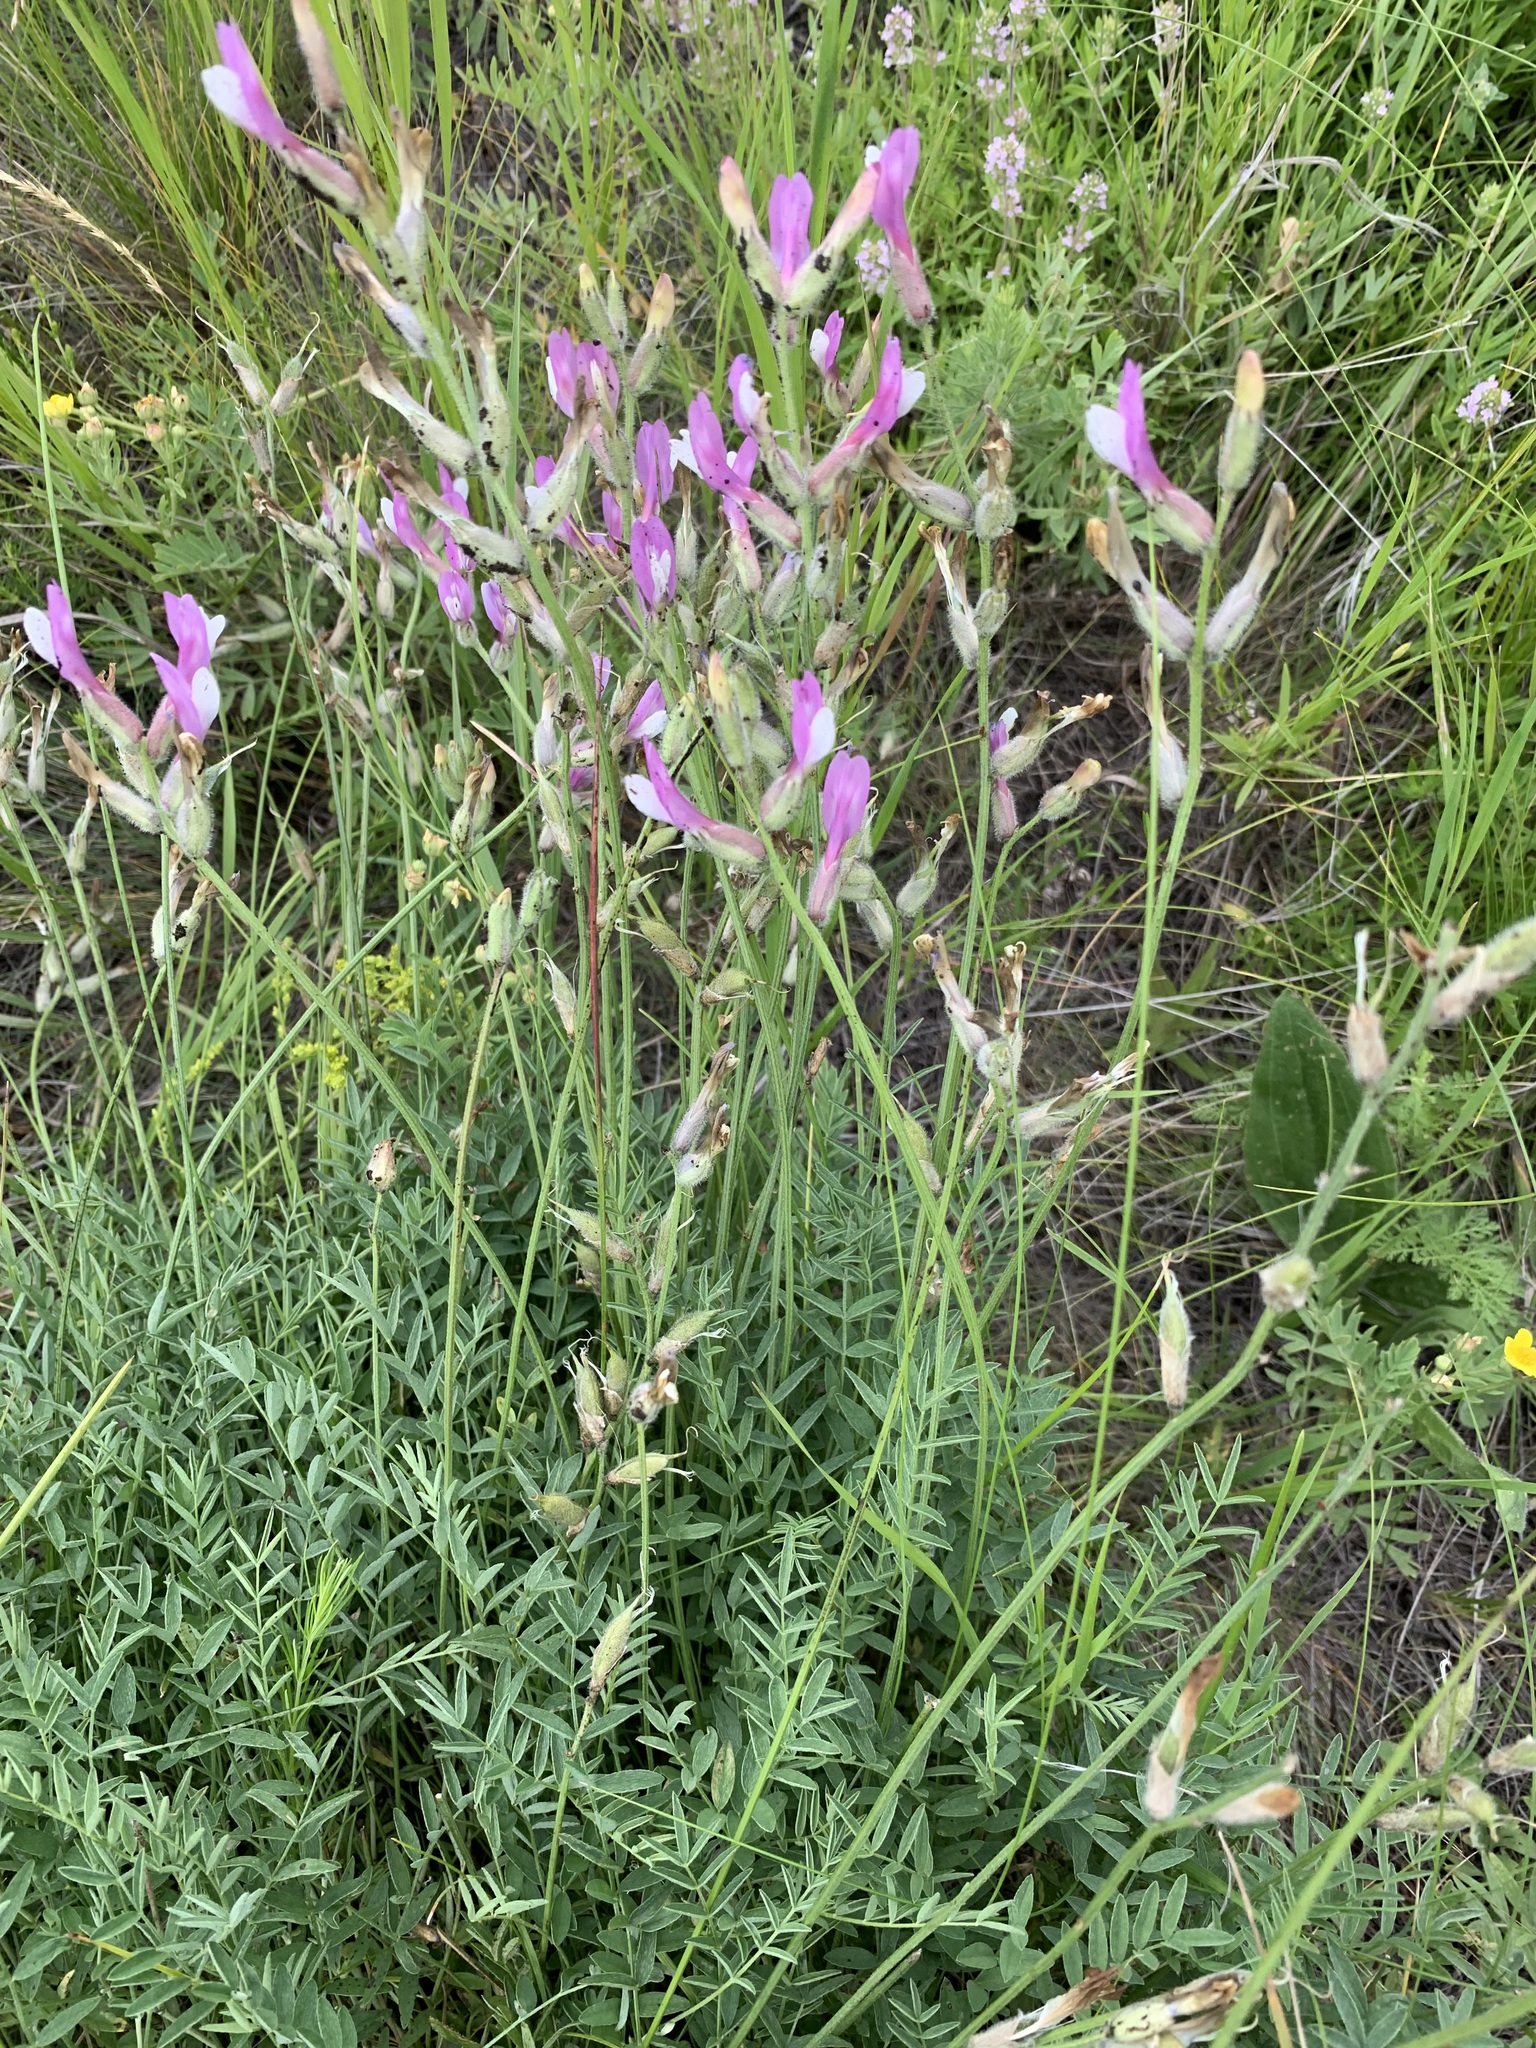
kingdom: Plantae
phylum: Tracheophyta
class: Magnoliopsida
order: Fabales
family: Fabaceae
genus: Astragalus
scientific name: Astragalus macropus
